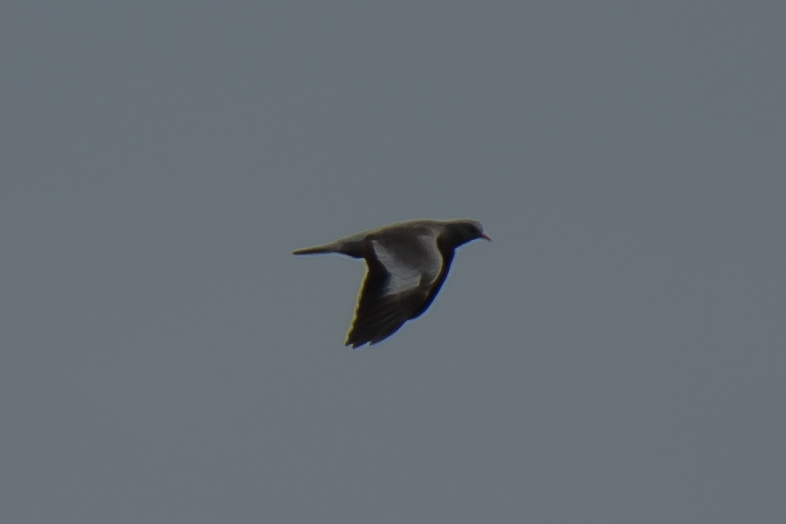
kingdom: Animalia
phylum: Chordata
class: Aves
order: Columbiformes
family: Columbidae
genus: Columba
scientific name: Columba oenas
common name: Stock dove
